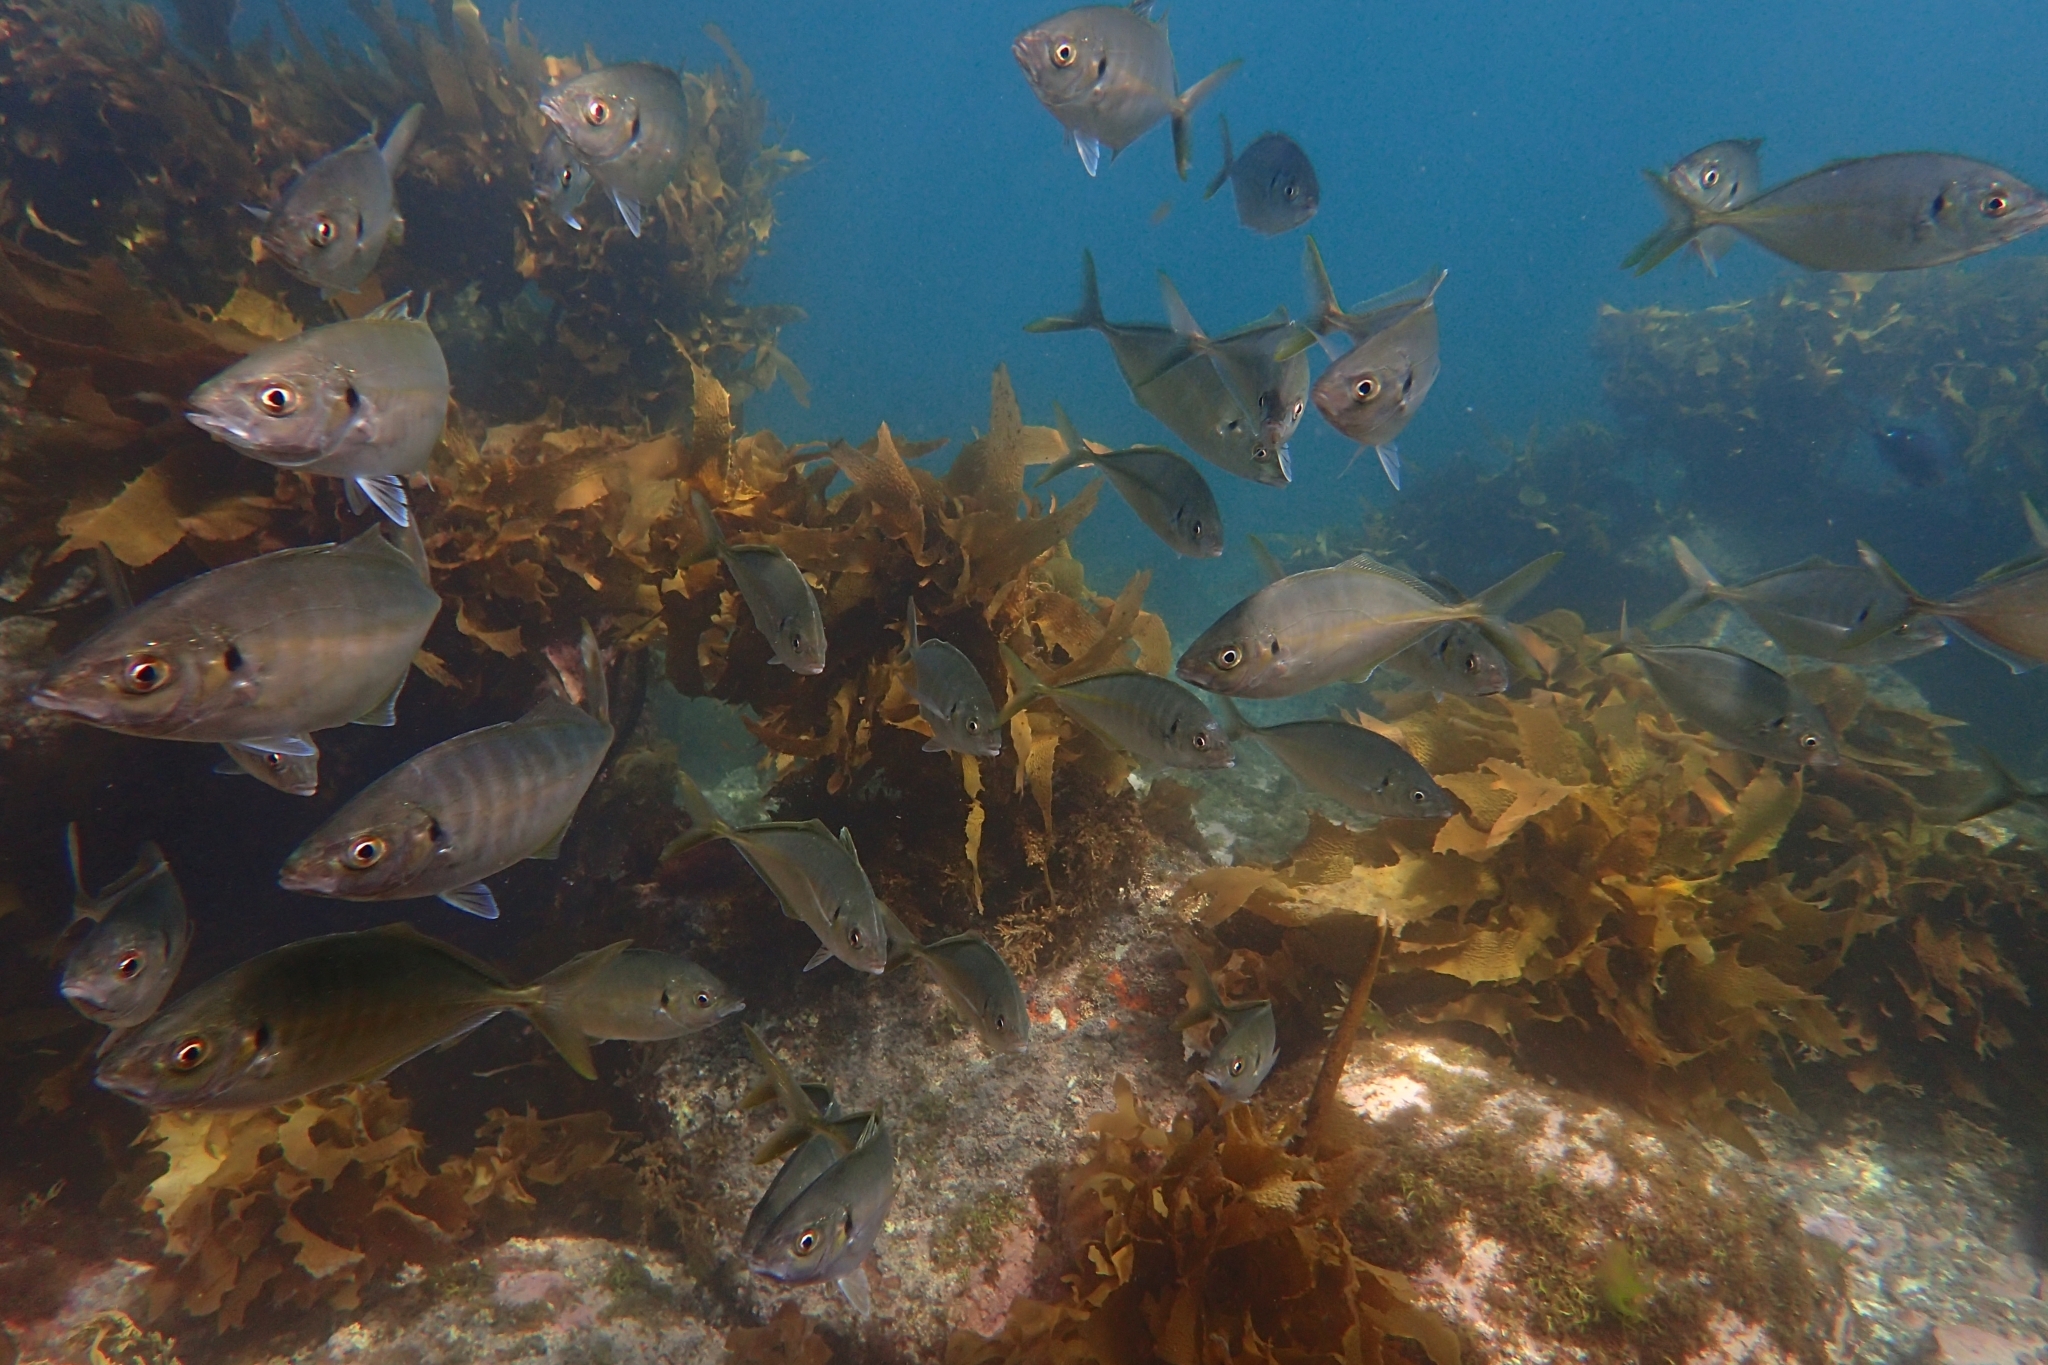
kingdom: Animalia
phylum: Chordata
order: Perciformes
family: Carangidae
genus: Pseudocaranx
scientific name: Pseudocaranx dentex
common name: White trevally
